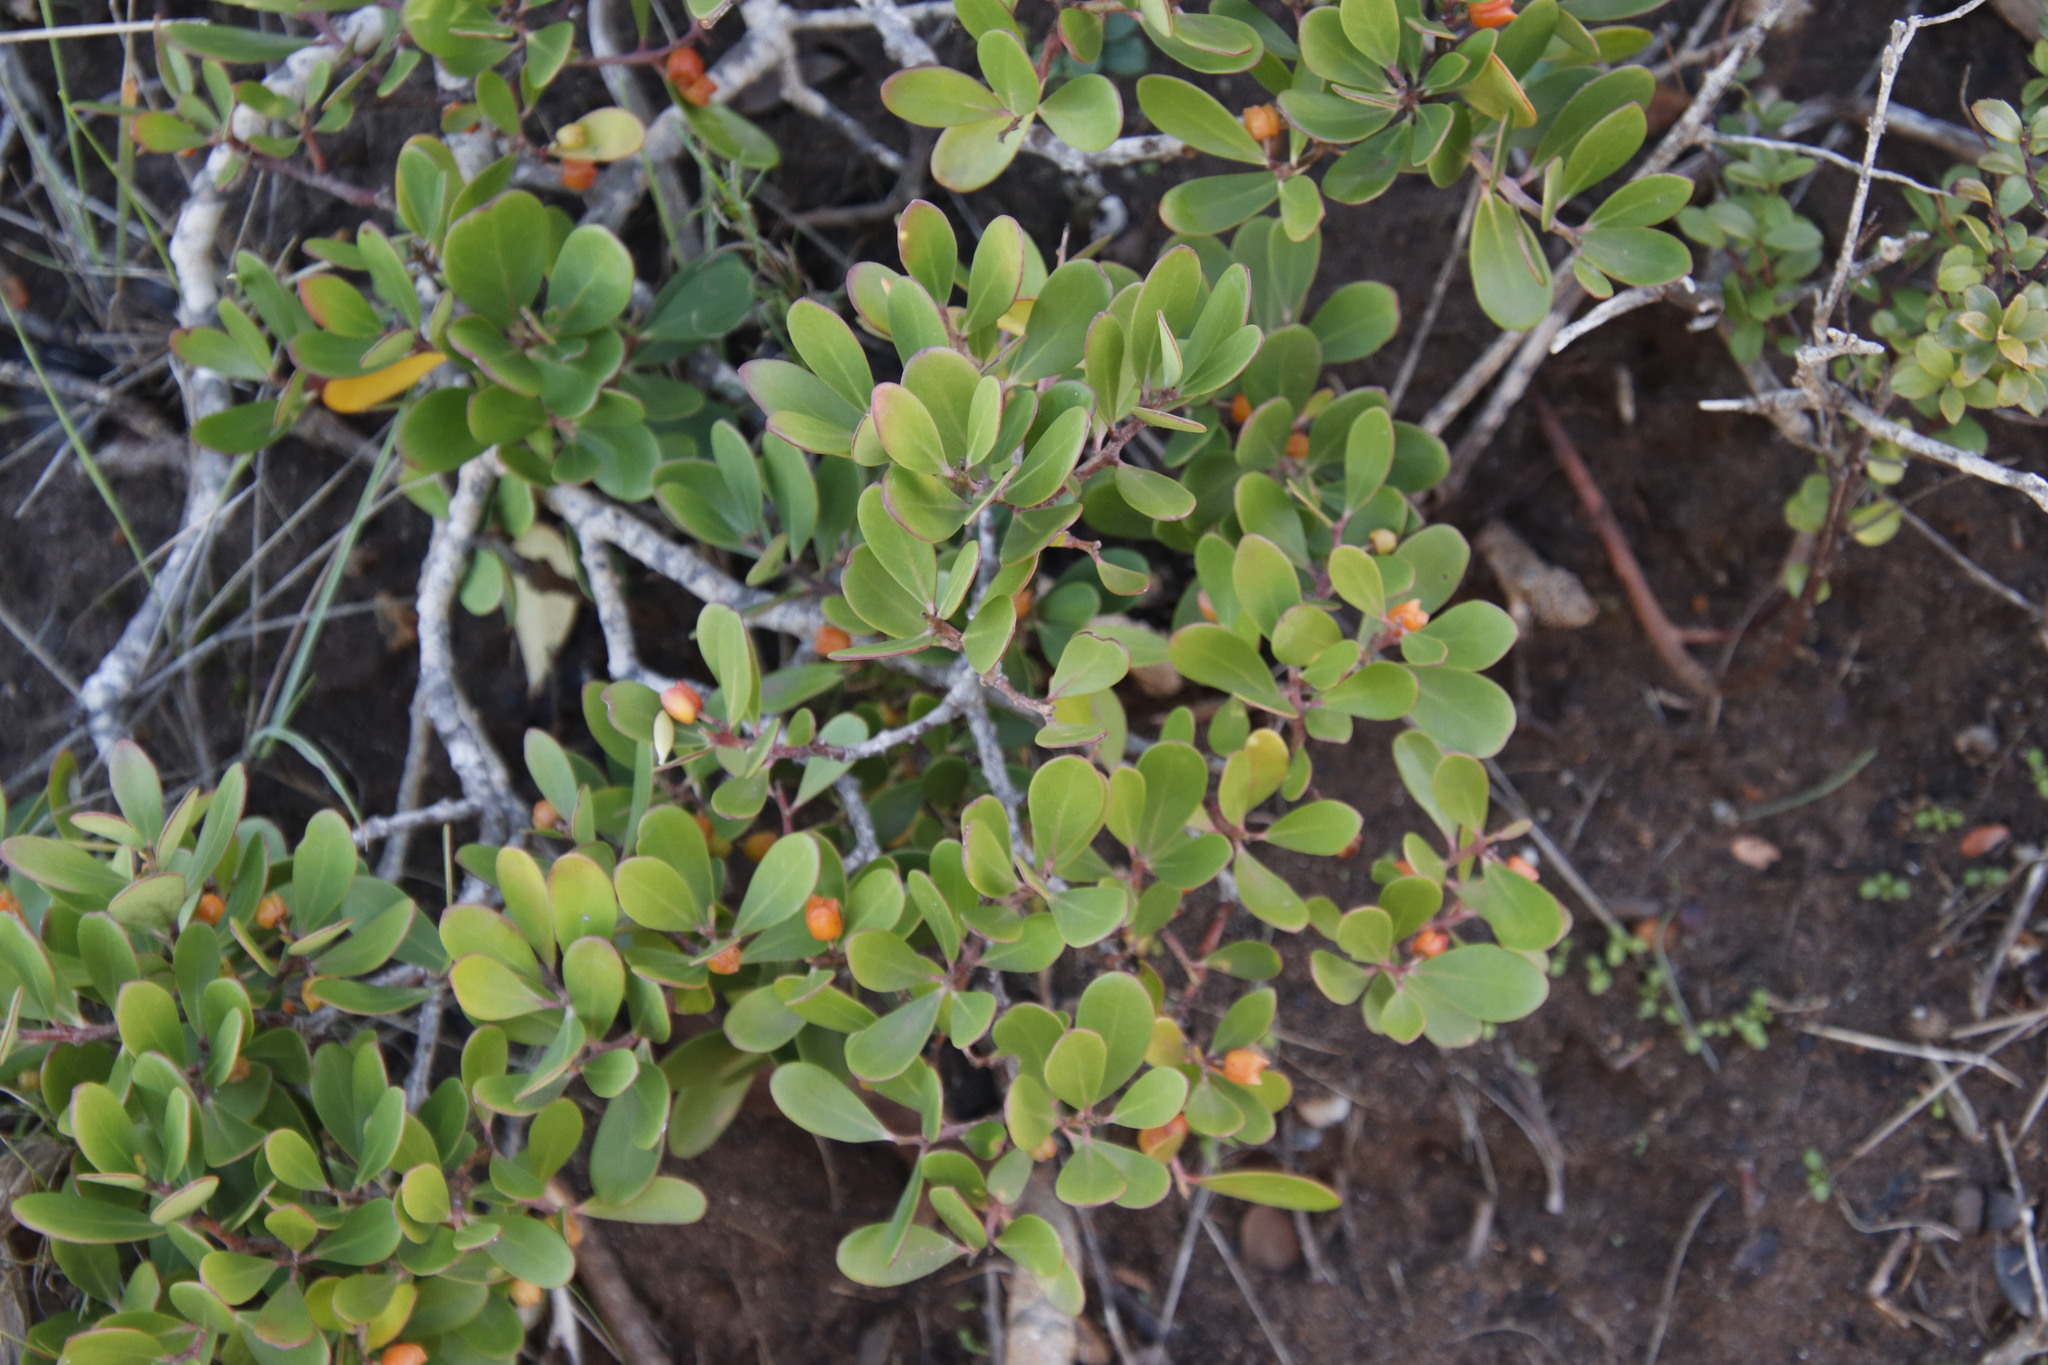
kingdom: Plantae
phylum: Tracheophyta
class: Magnoliopsida
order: Celastrales
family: Celastraceae
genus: Pterocelastrus
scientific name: Pterocelastrus tricuspidatus
